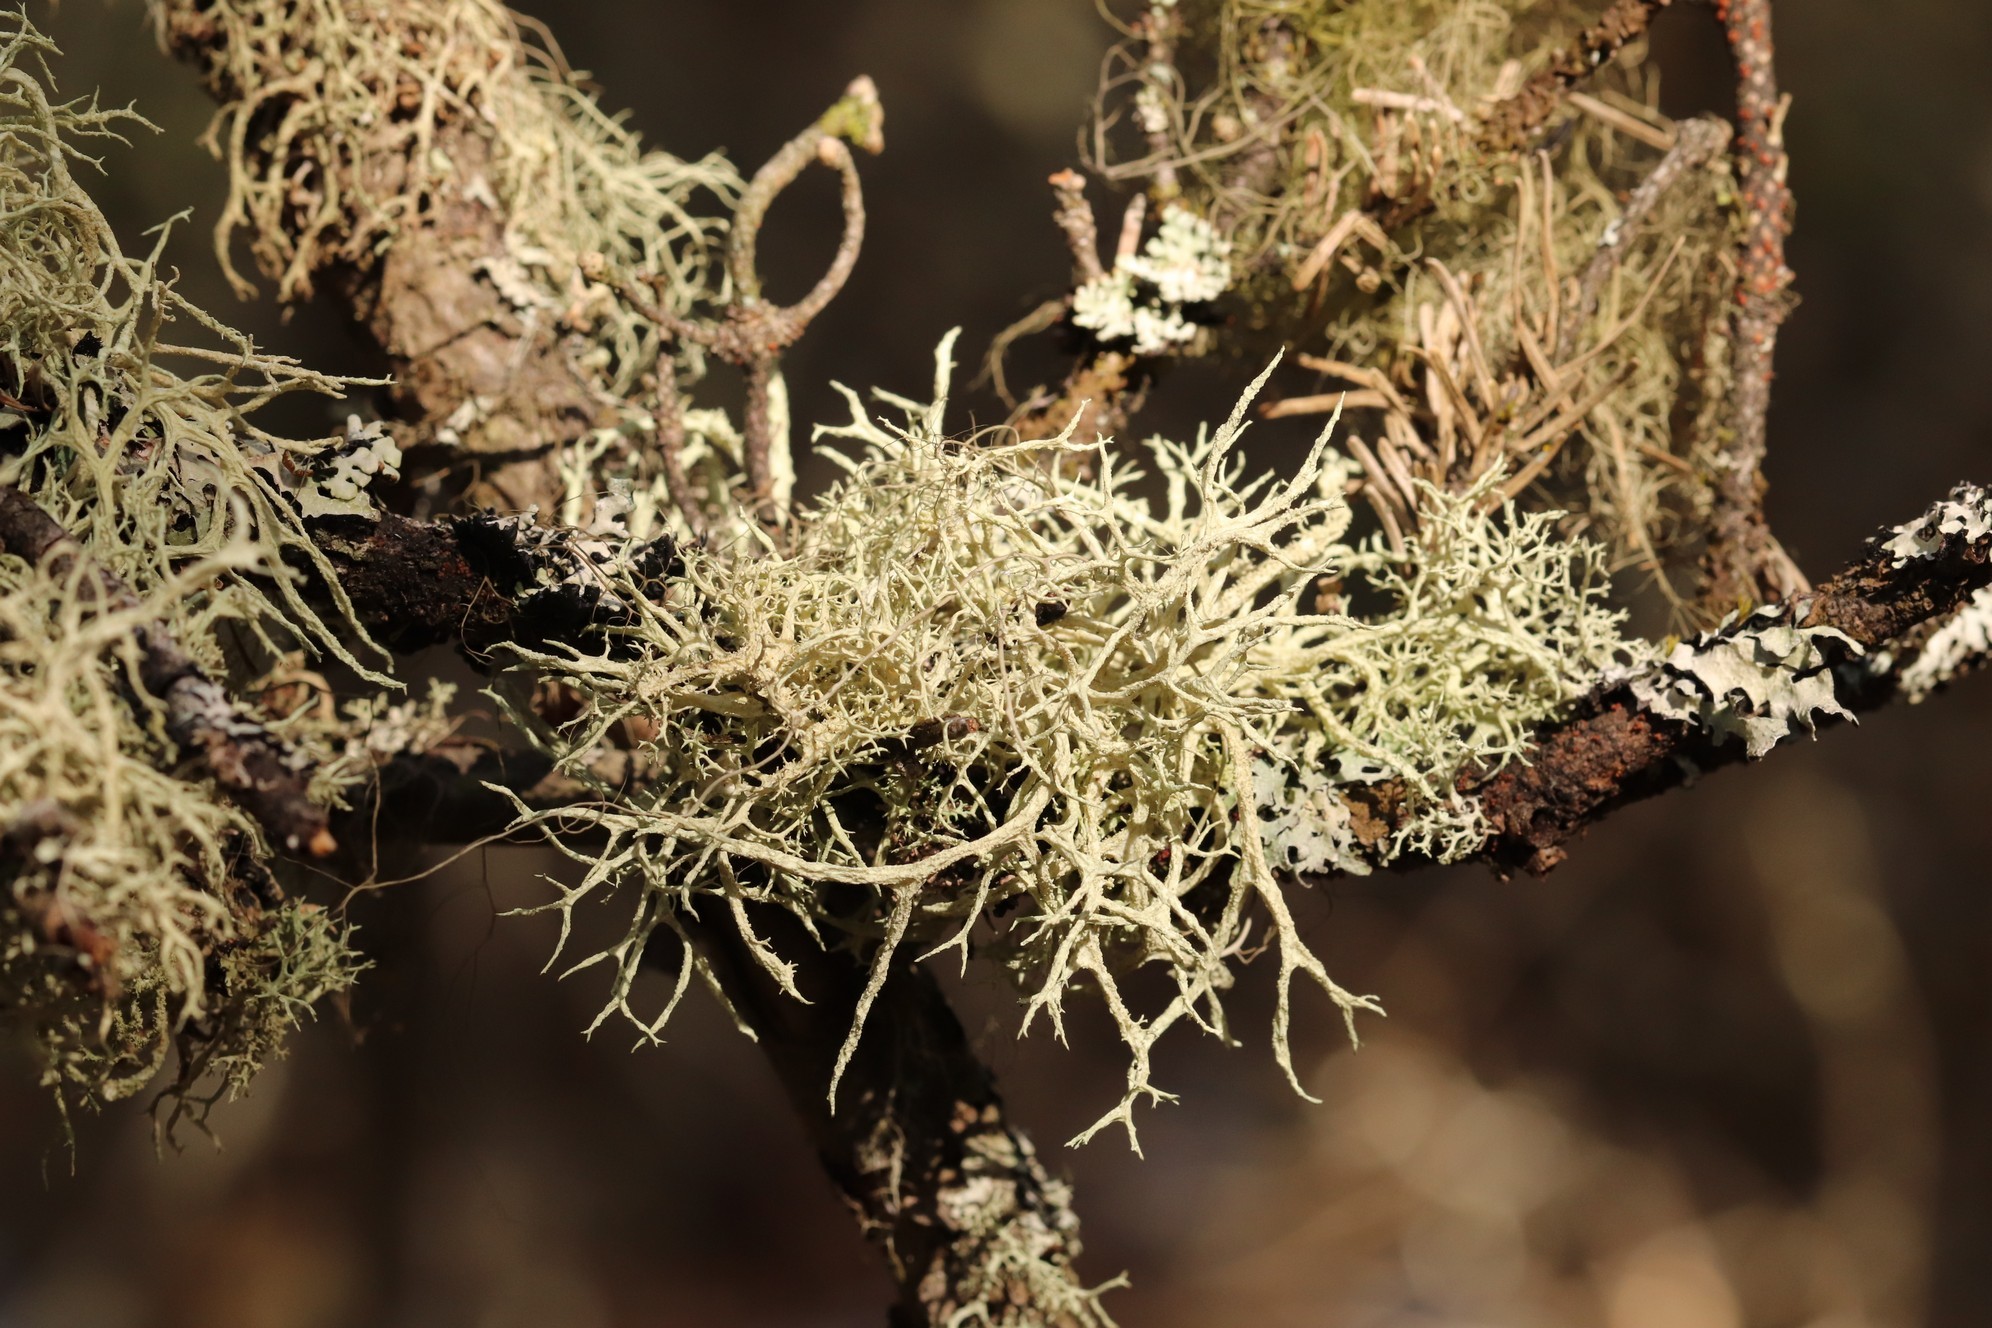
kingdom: Fungi
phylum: Ascomycota
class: Lecanoromycetes
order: Lecanorales
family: Parmeliaceae
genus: Evernia
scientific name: Evernia mesomorpha
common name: Boreal oak moss lichen
